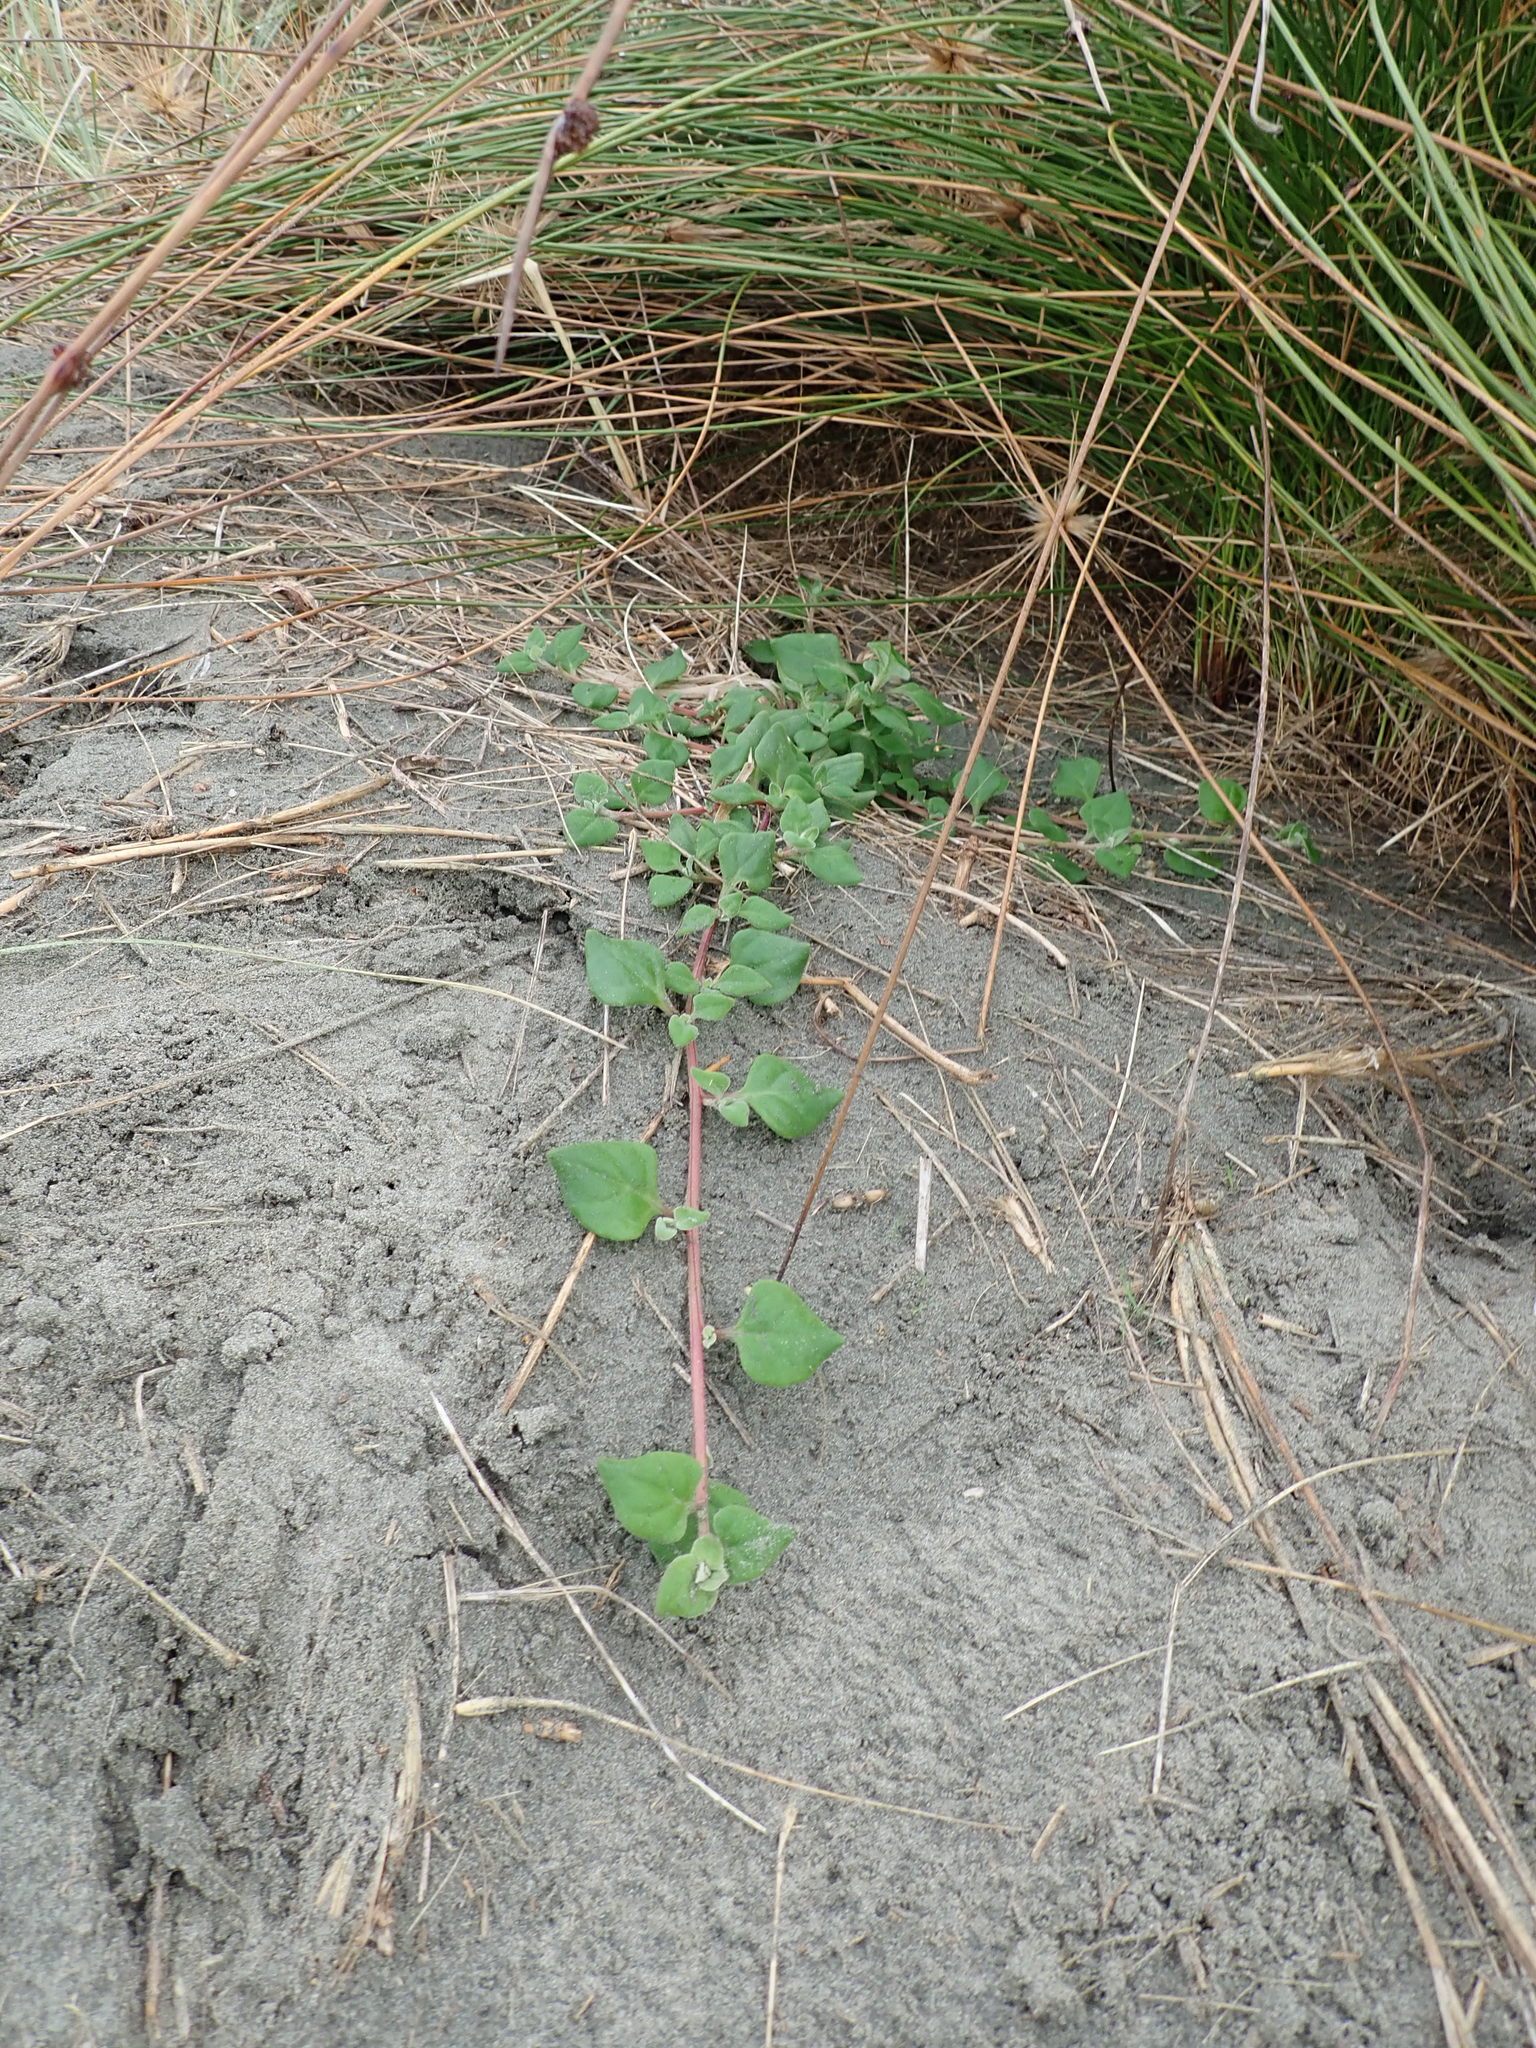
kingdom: Plantae
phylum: Tracheophyta
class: Magnoliopsida
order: Caryophyllales
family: Aizoaceae
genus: Tetragonia
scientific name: Tetragonia implexicoma
